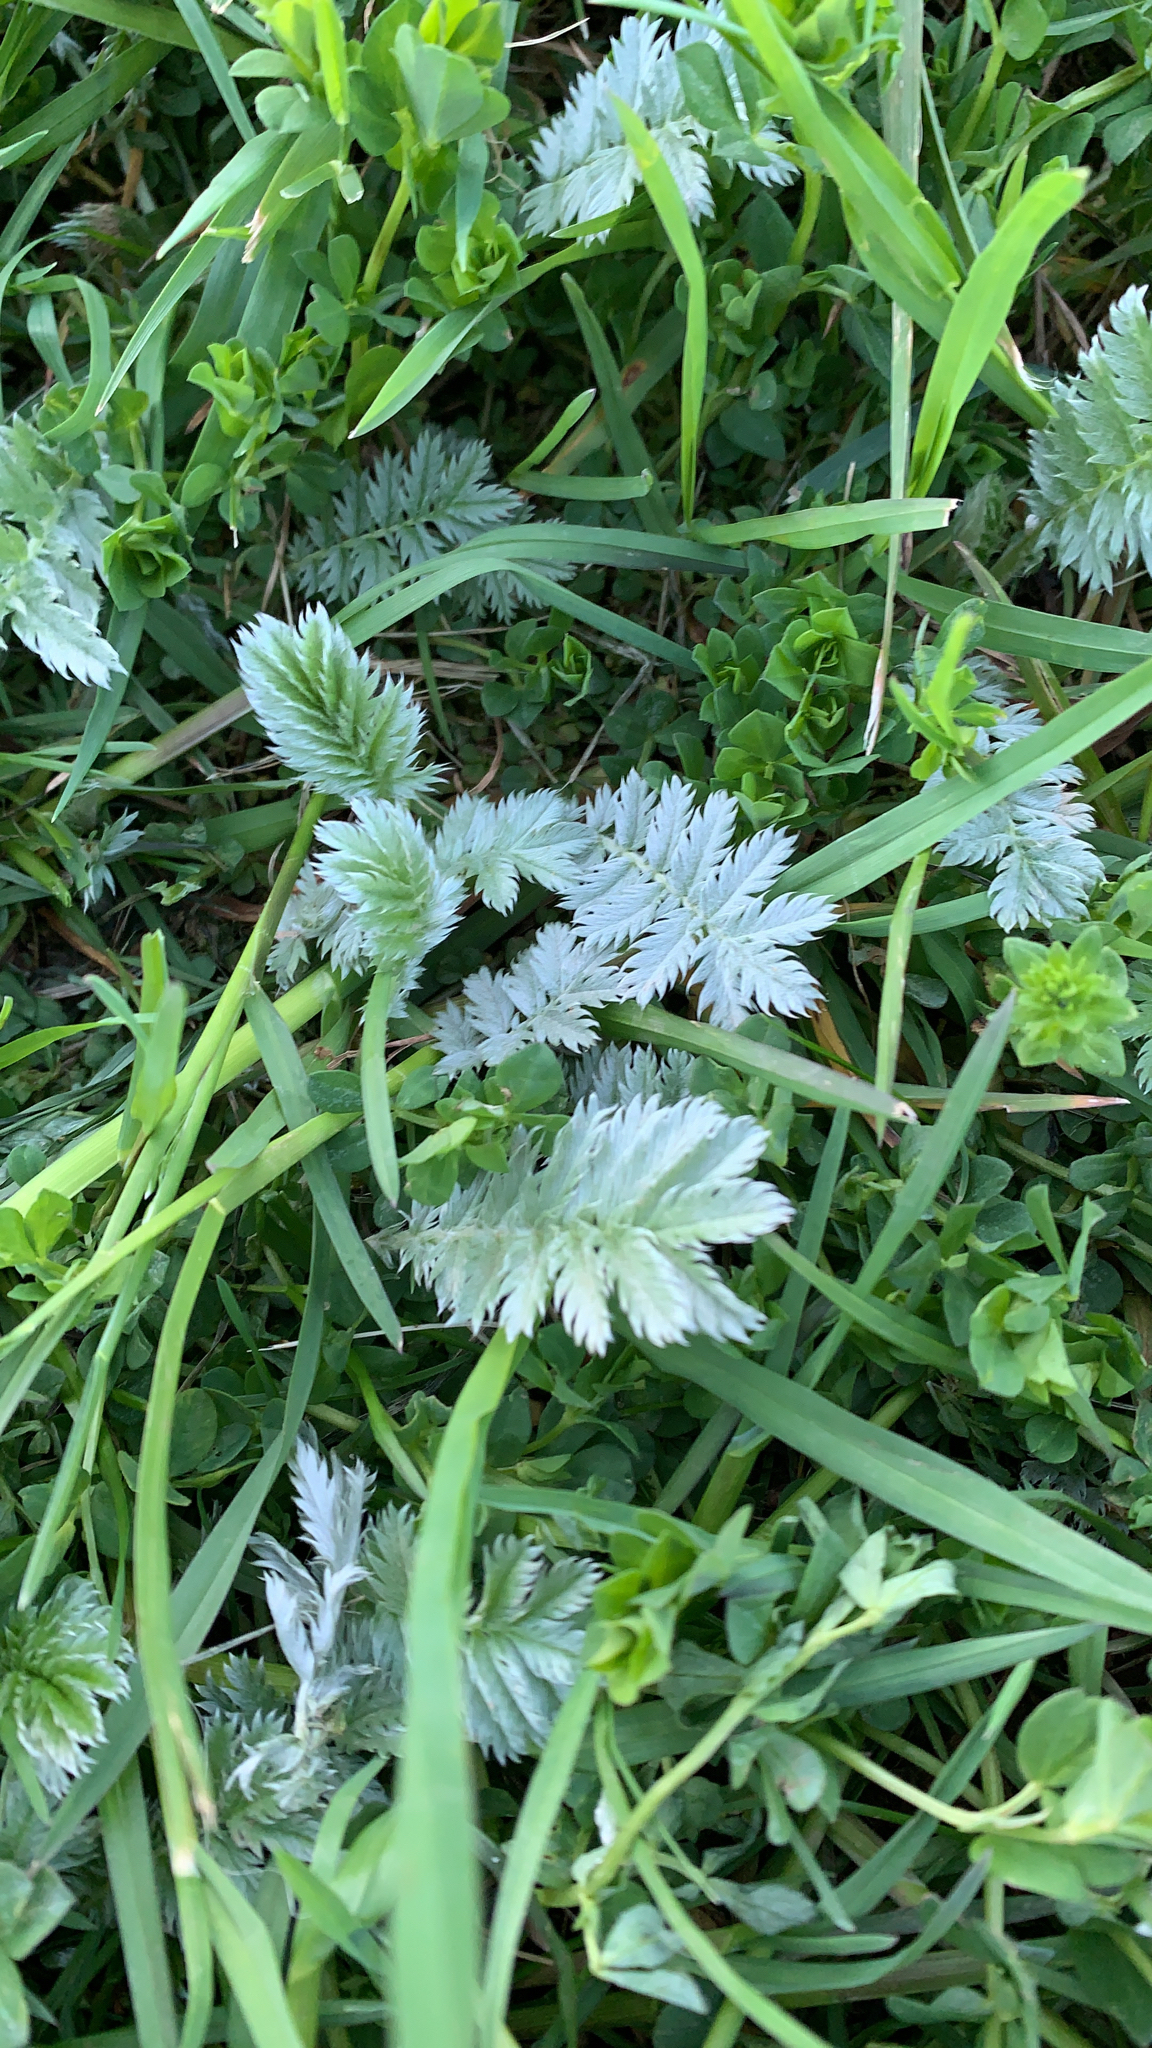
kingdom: Plantae
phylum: Tracheophyta
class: Magnoliopsida
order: Rosales
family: Rosaceae
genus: Argentina
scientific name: Argentina anserina
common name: Common silverweed
